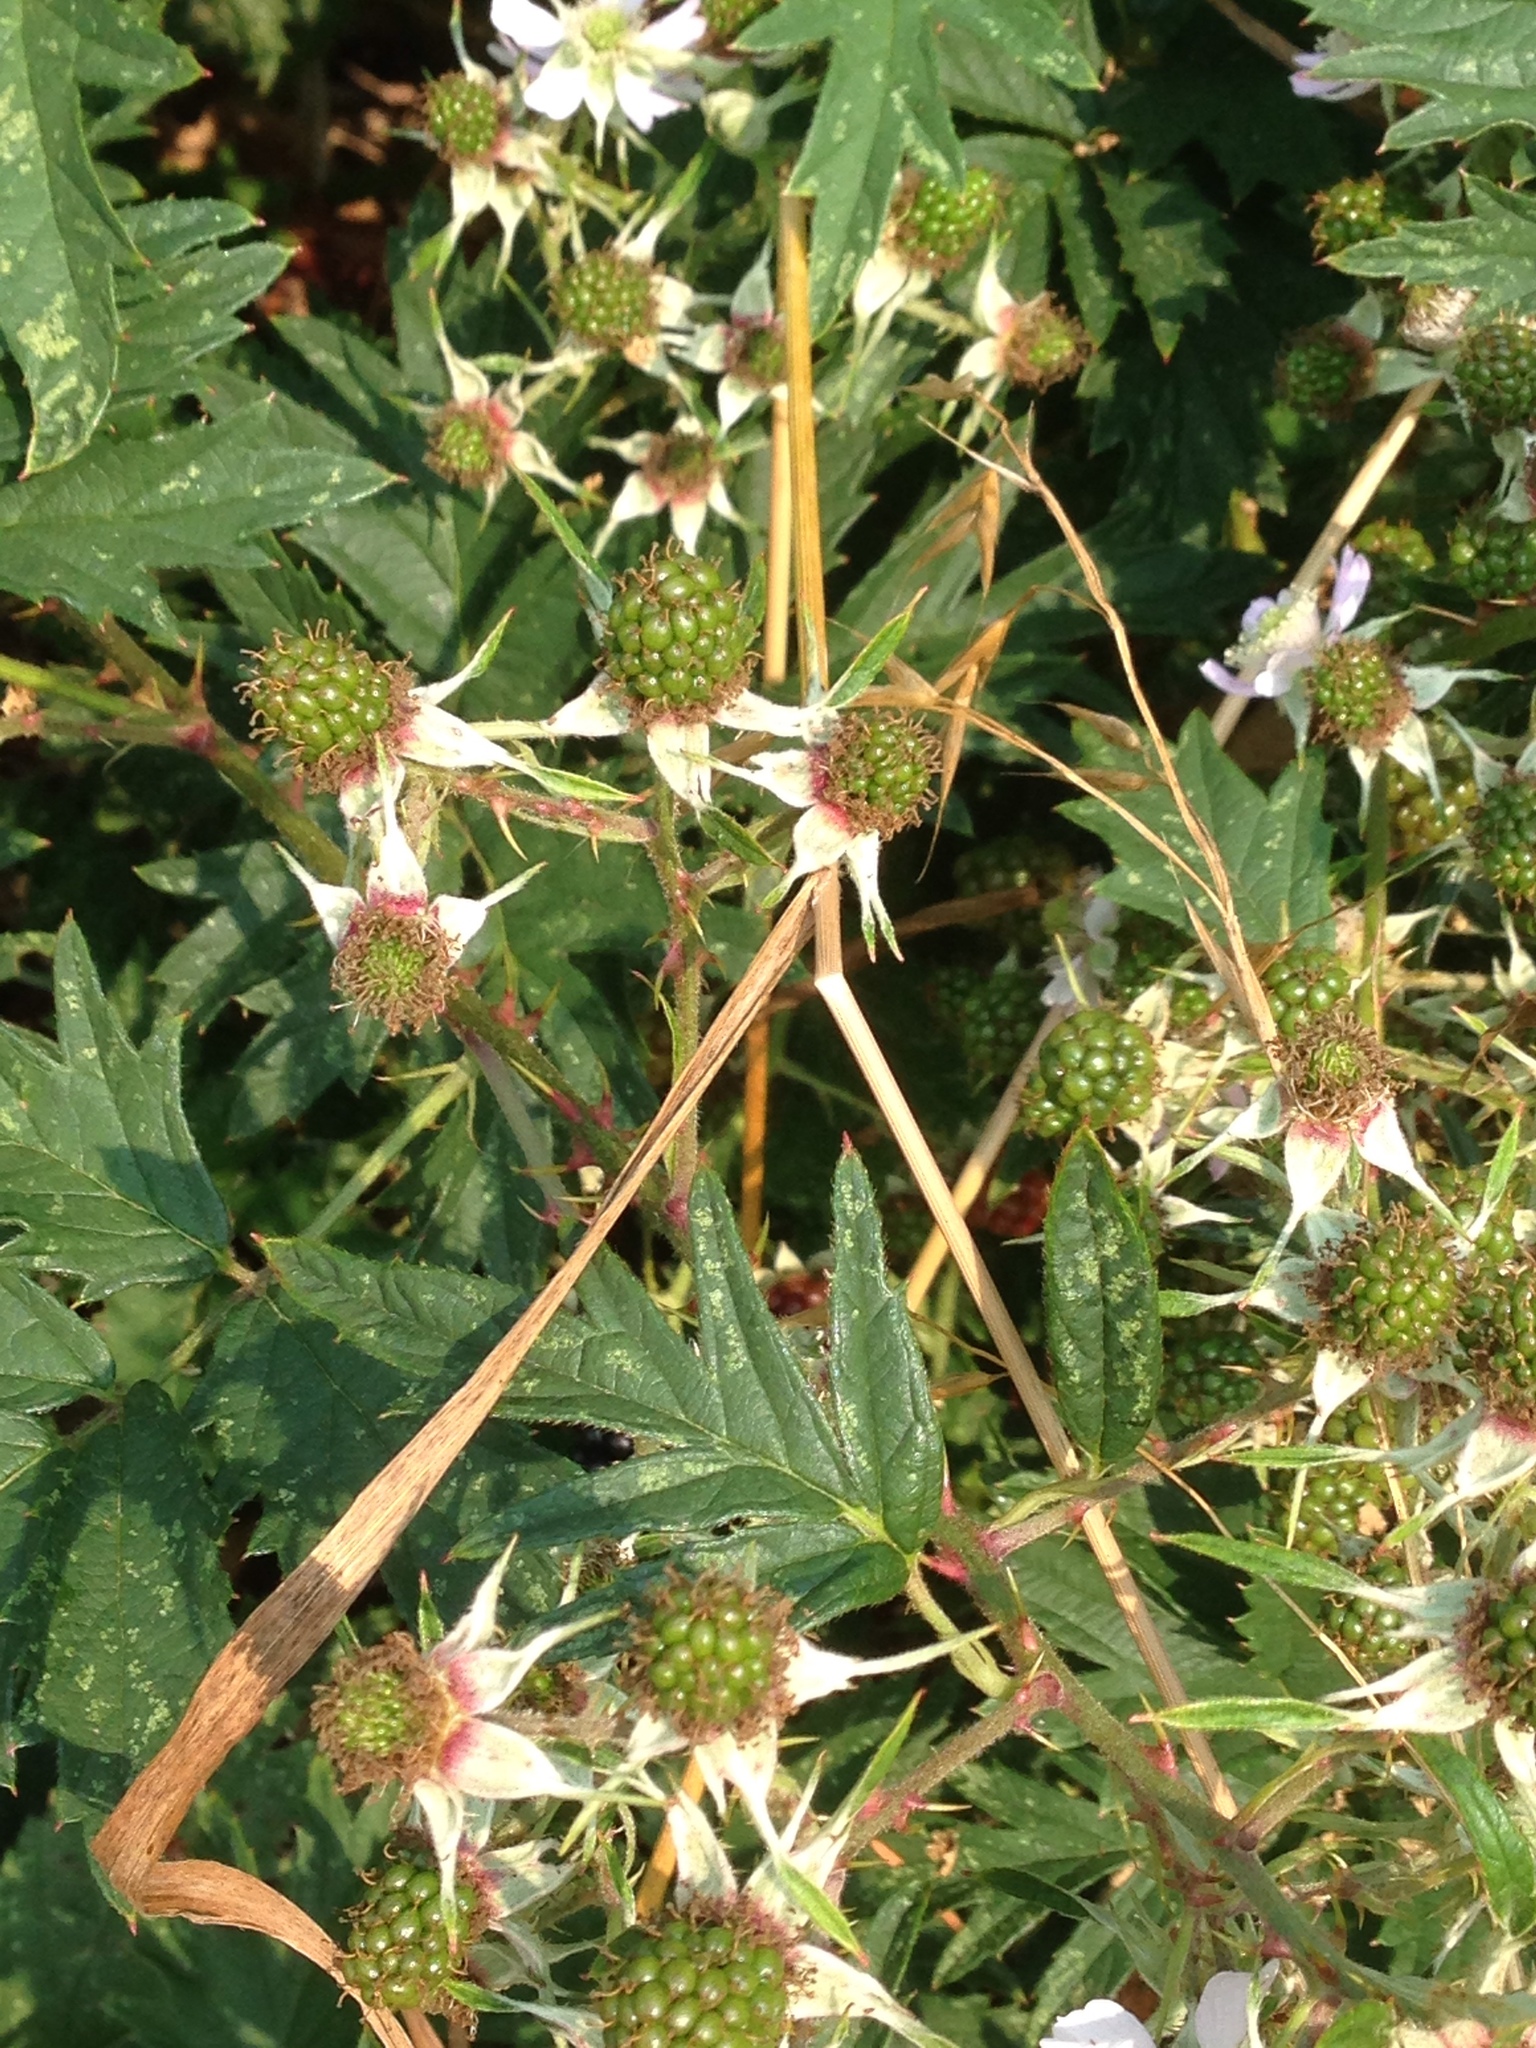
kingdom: Plantae
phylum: Tracheophyta
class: Magnoliopsida
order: Rosales
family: Rosaceae
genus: Rubus
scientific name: Rubus laciniatus
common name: Evergreen blackberry
